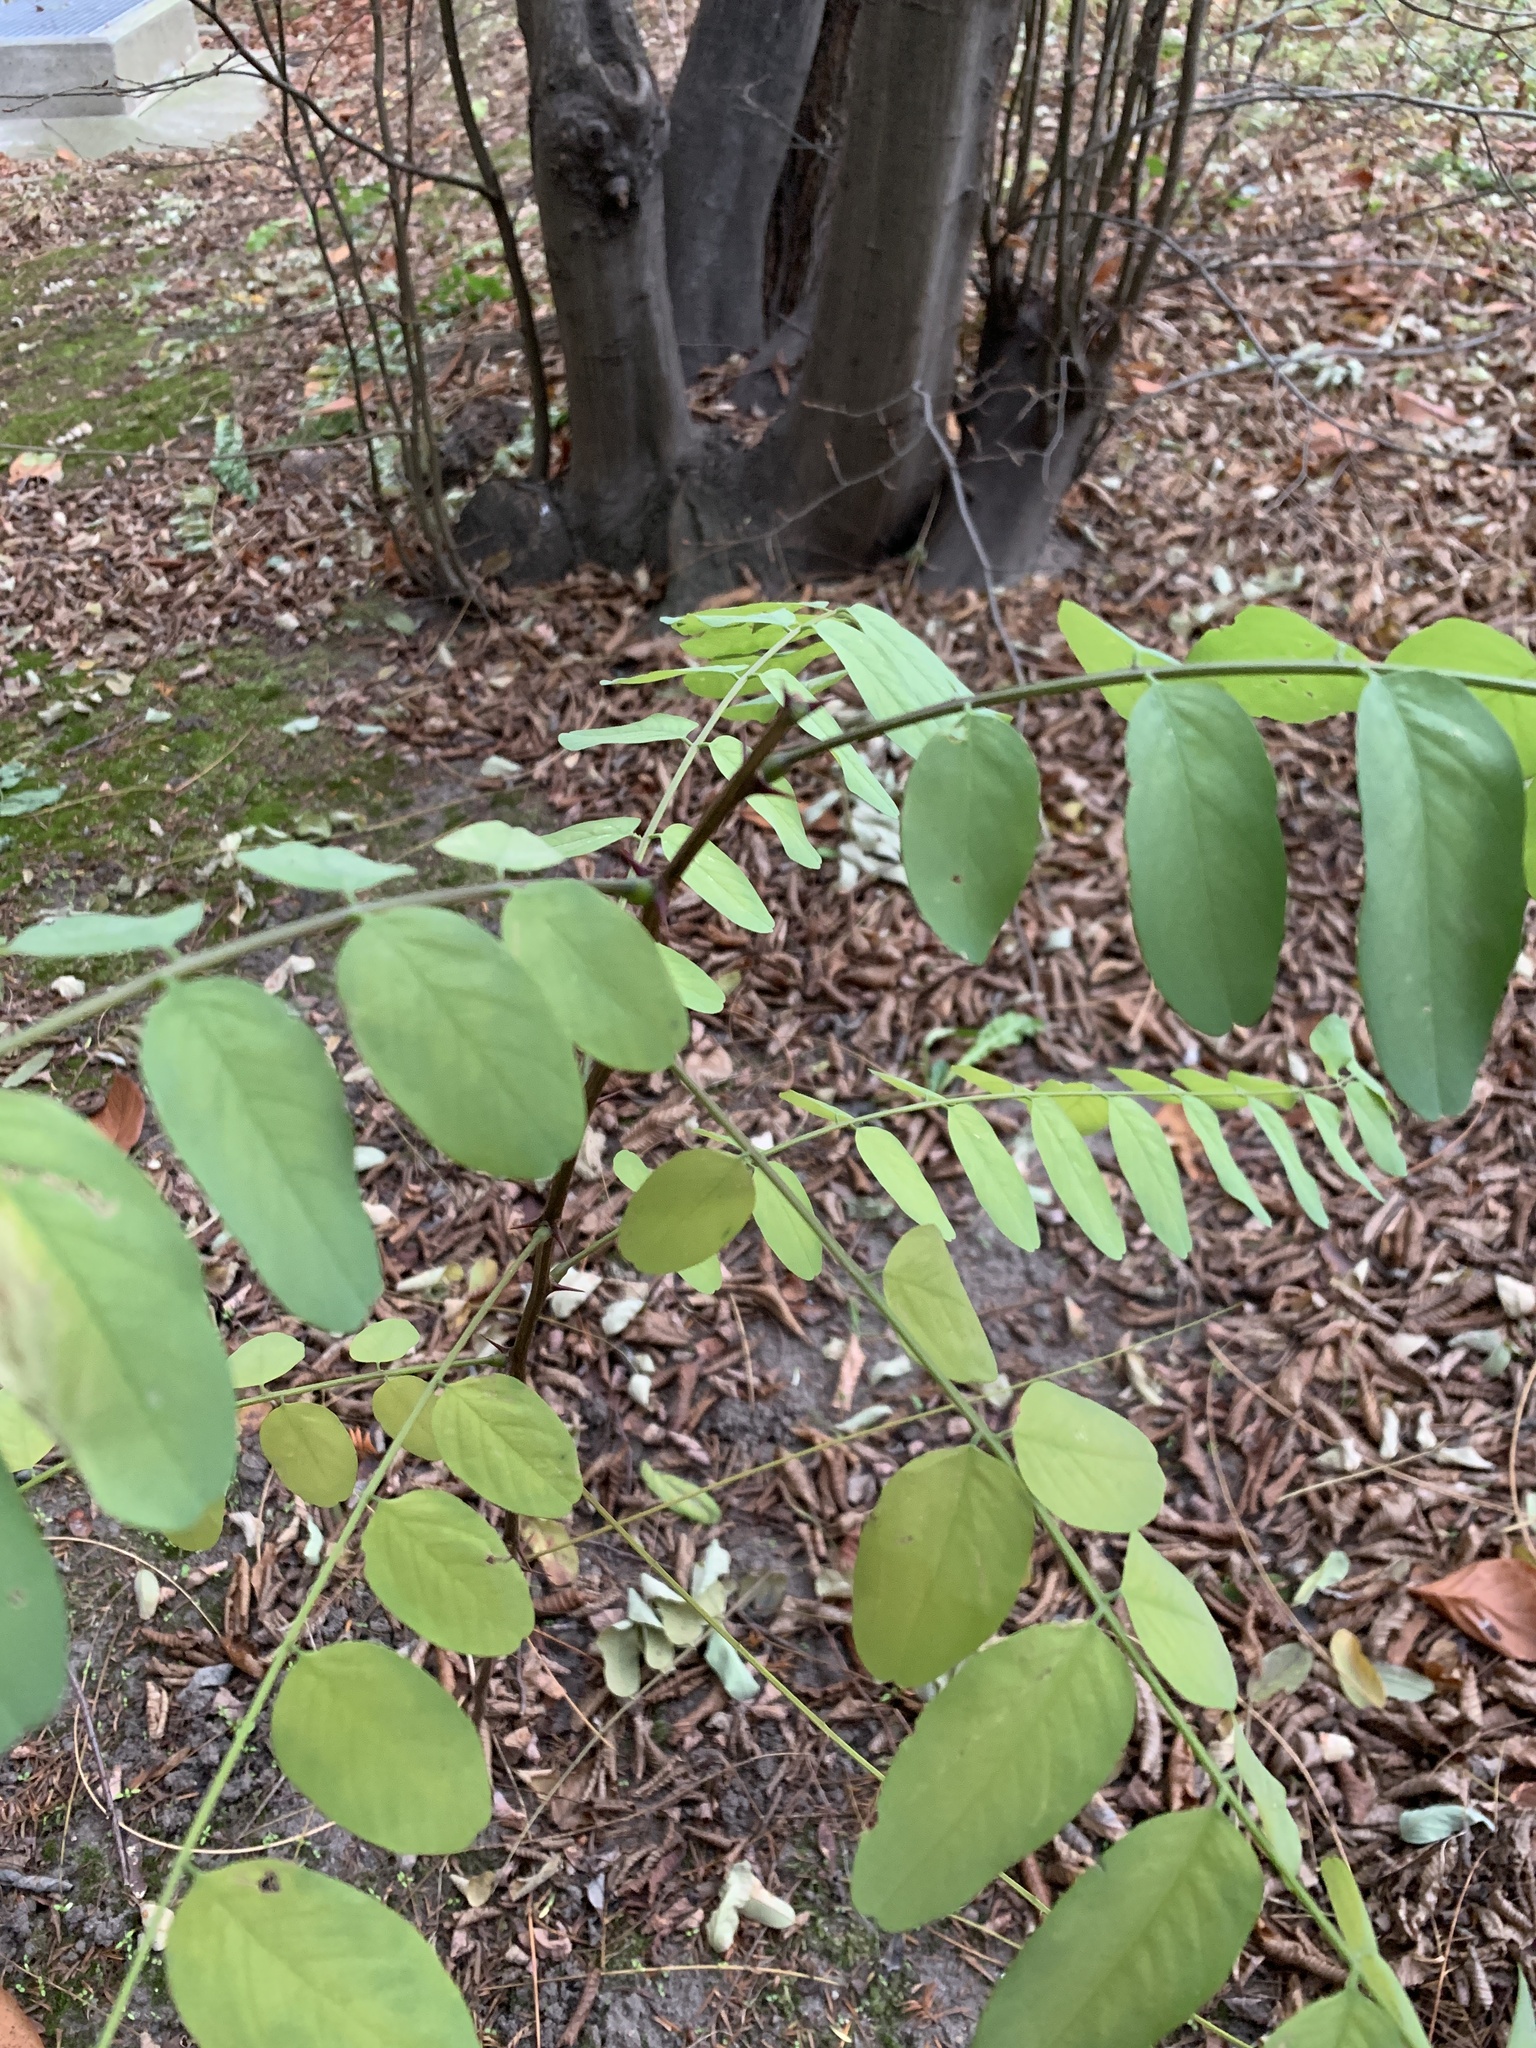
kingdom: Plantae
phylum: Tracheophyta
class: Magnoliopsida
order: Fabales
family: Fabaceae
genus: Robinia
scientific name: Robinia pseudoacacia
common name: Black locust
